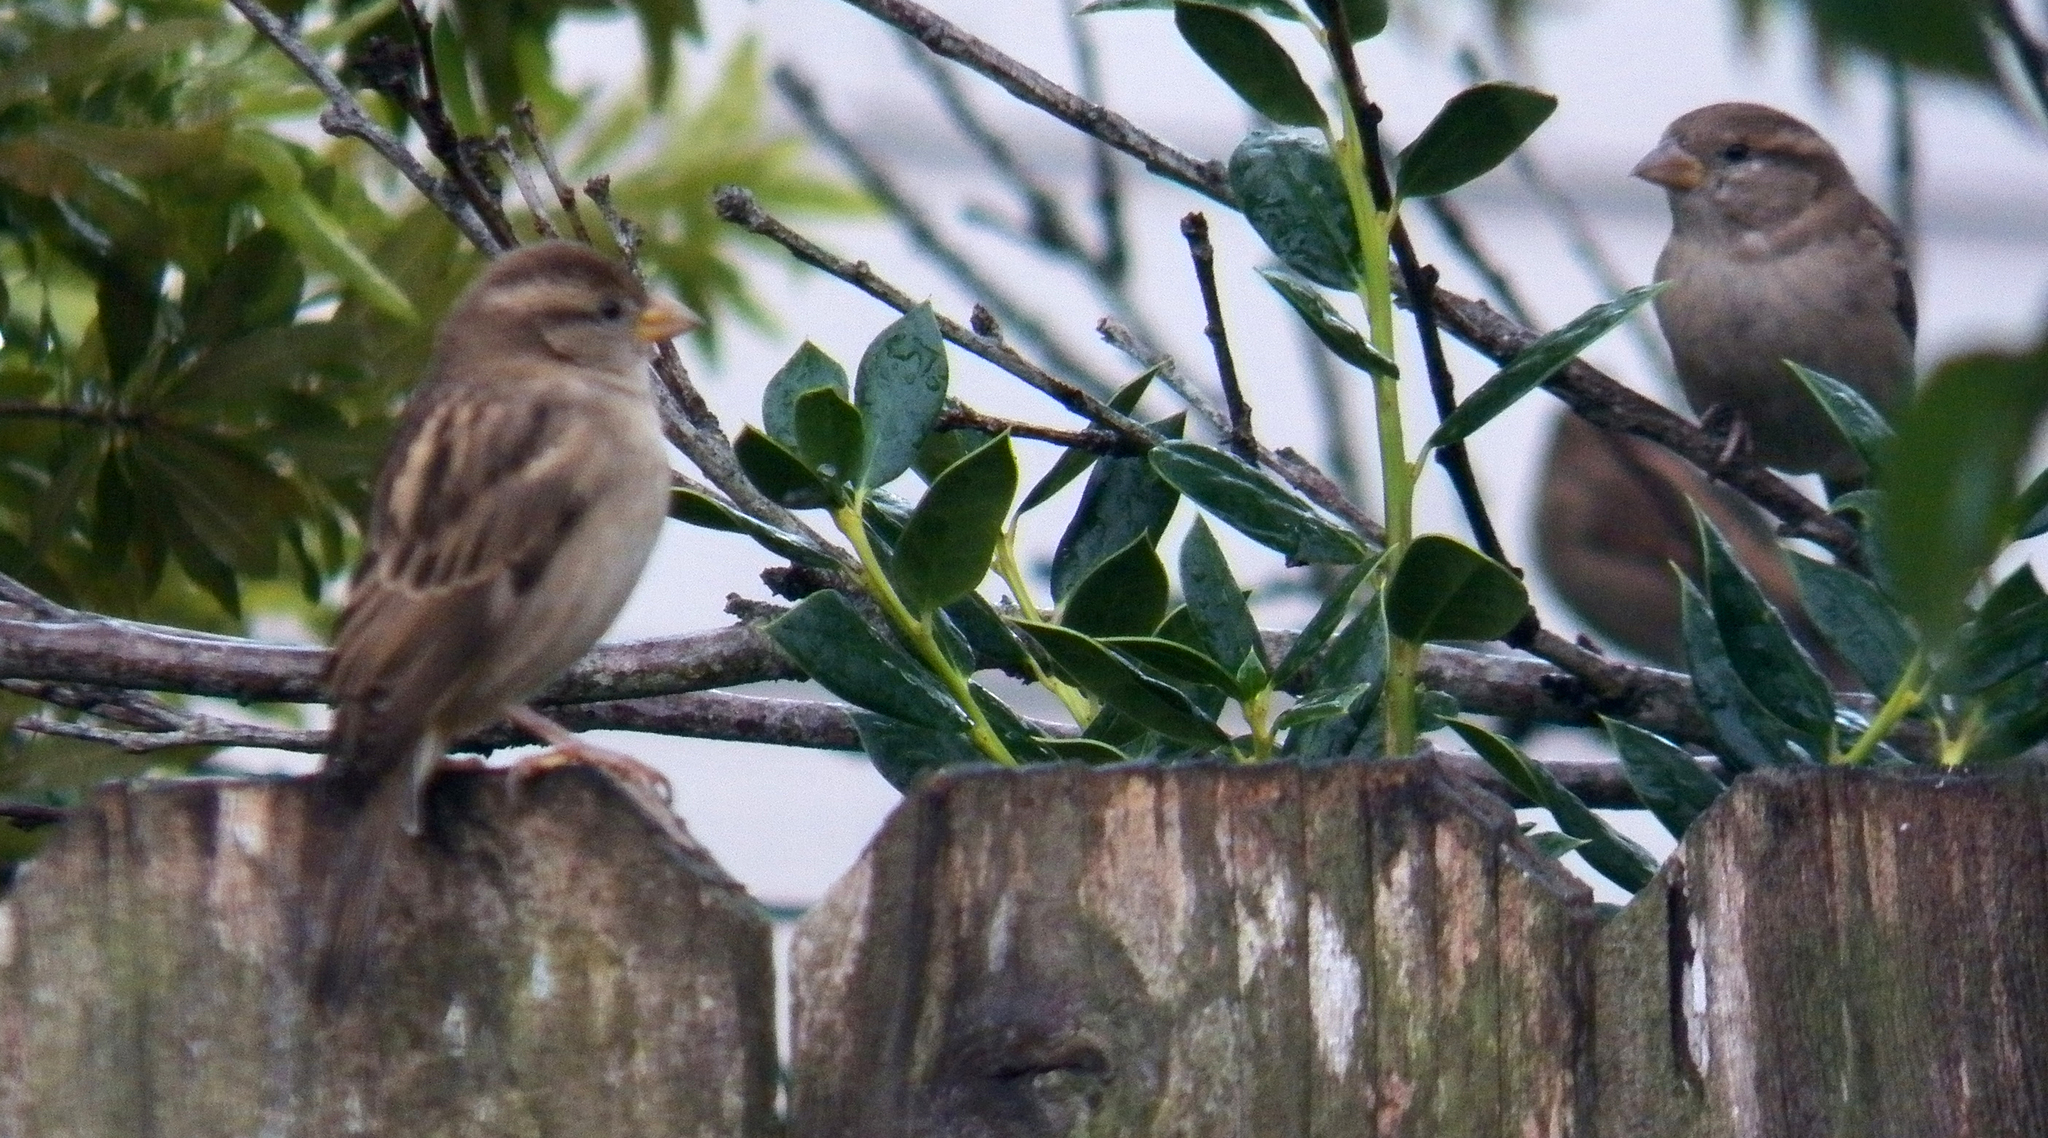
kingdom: Animalia
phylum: Chordata
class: Aves
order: Passeriformes
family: Passeridae
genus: Passer
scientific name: Passer domesticus
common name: House sparrow
